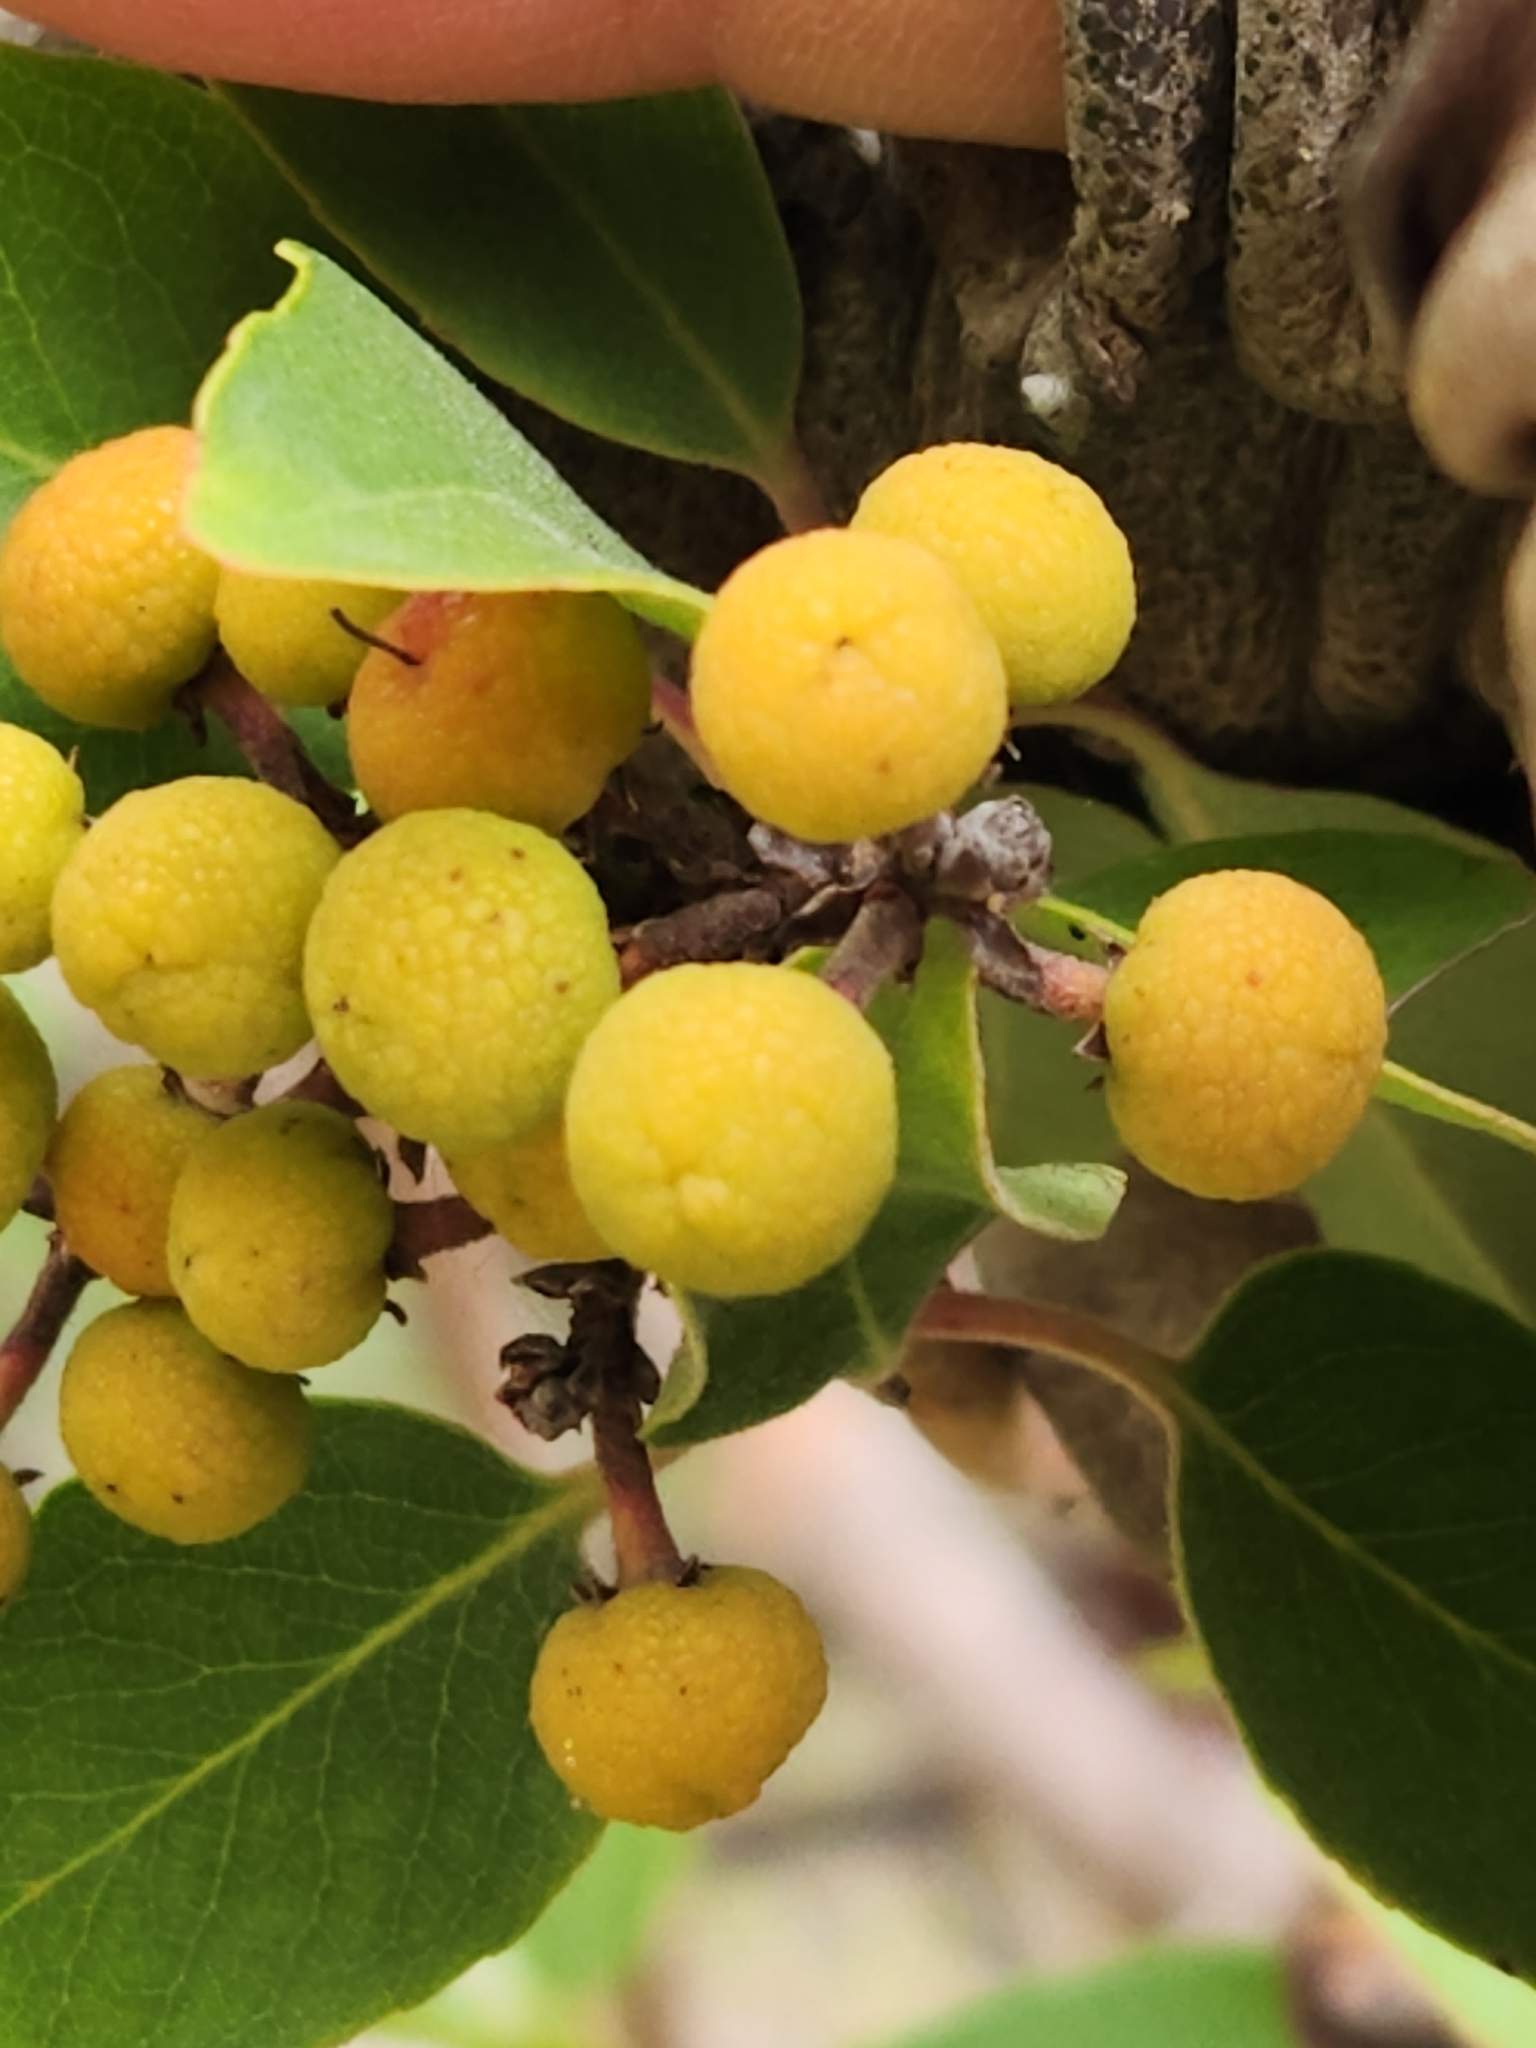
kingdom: Plantae
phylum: Tracheophyta
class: Magnoliopsida
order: Ericales
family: Ericaceae
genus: Arbutus
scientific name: Arbutus xalapensis
